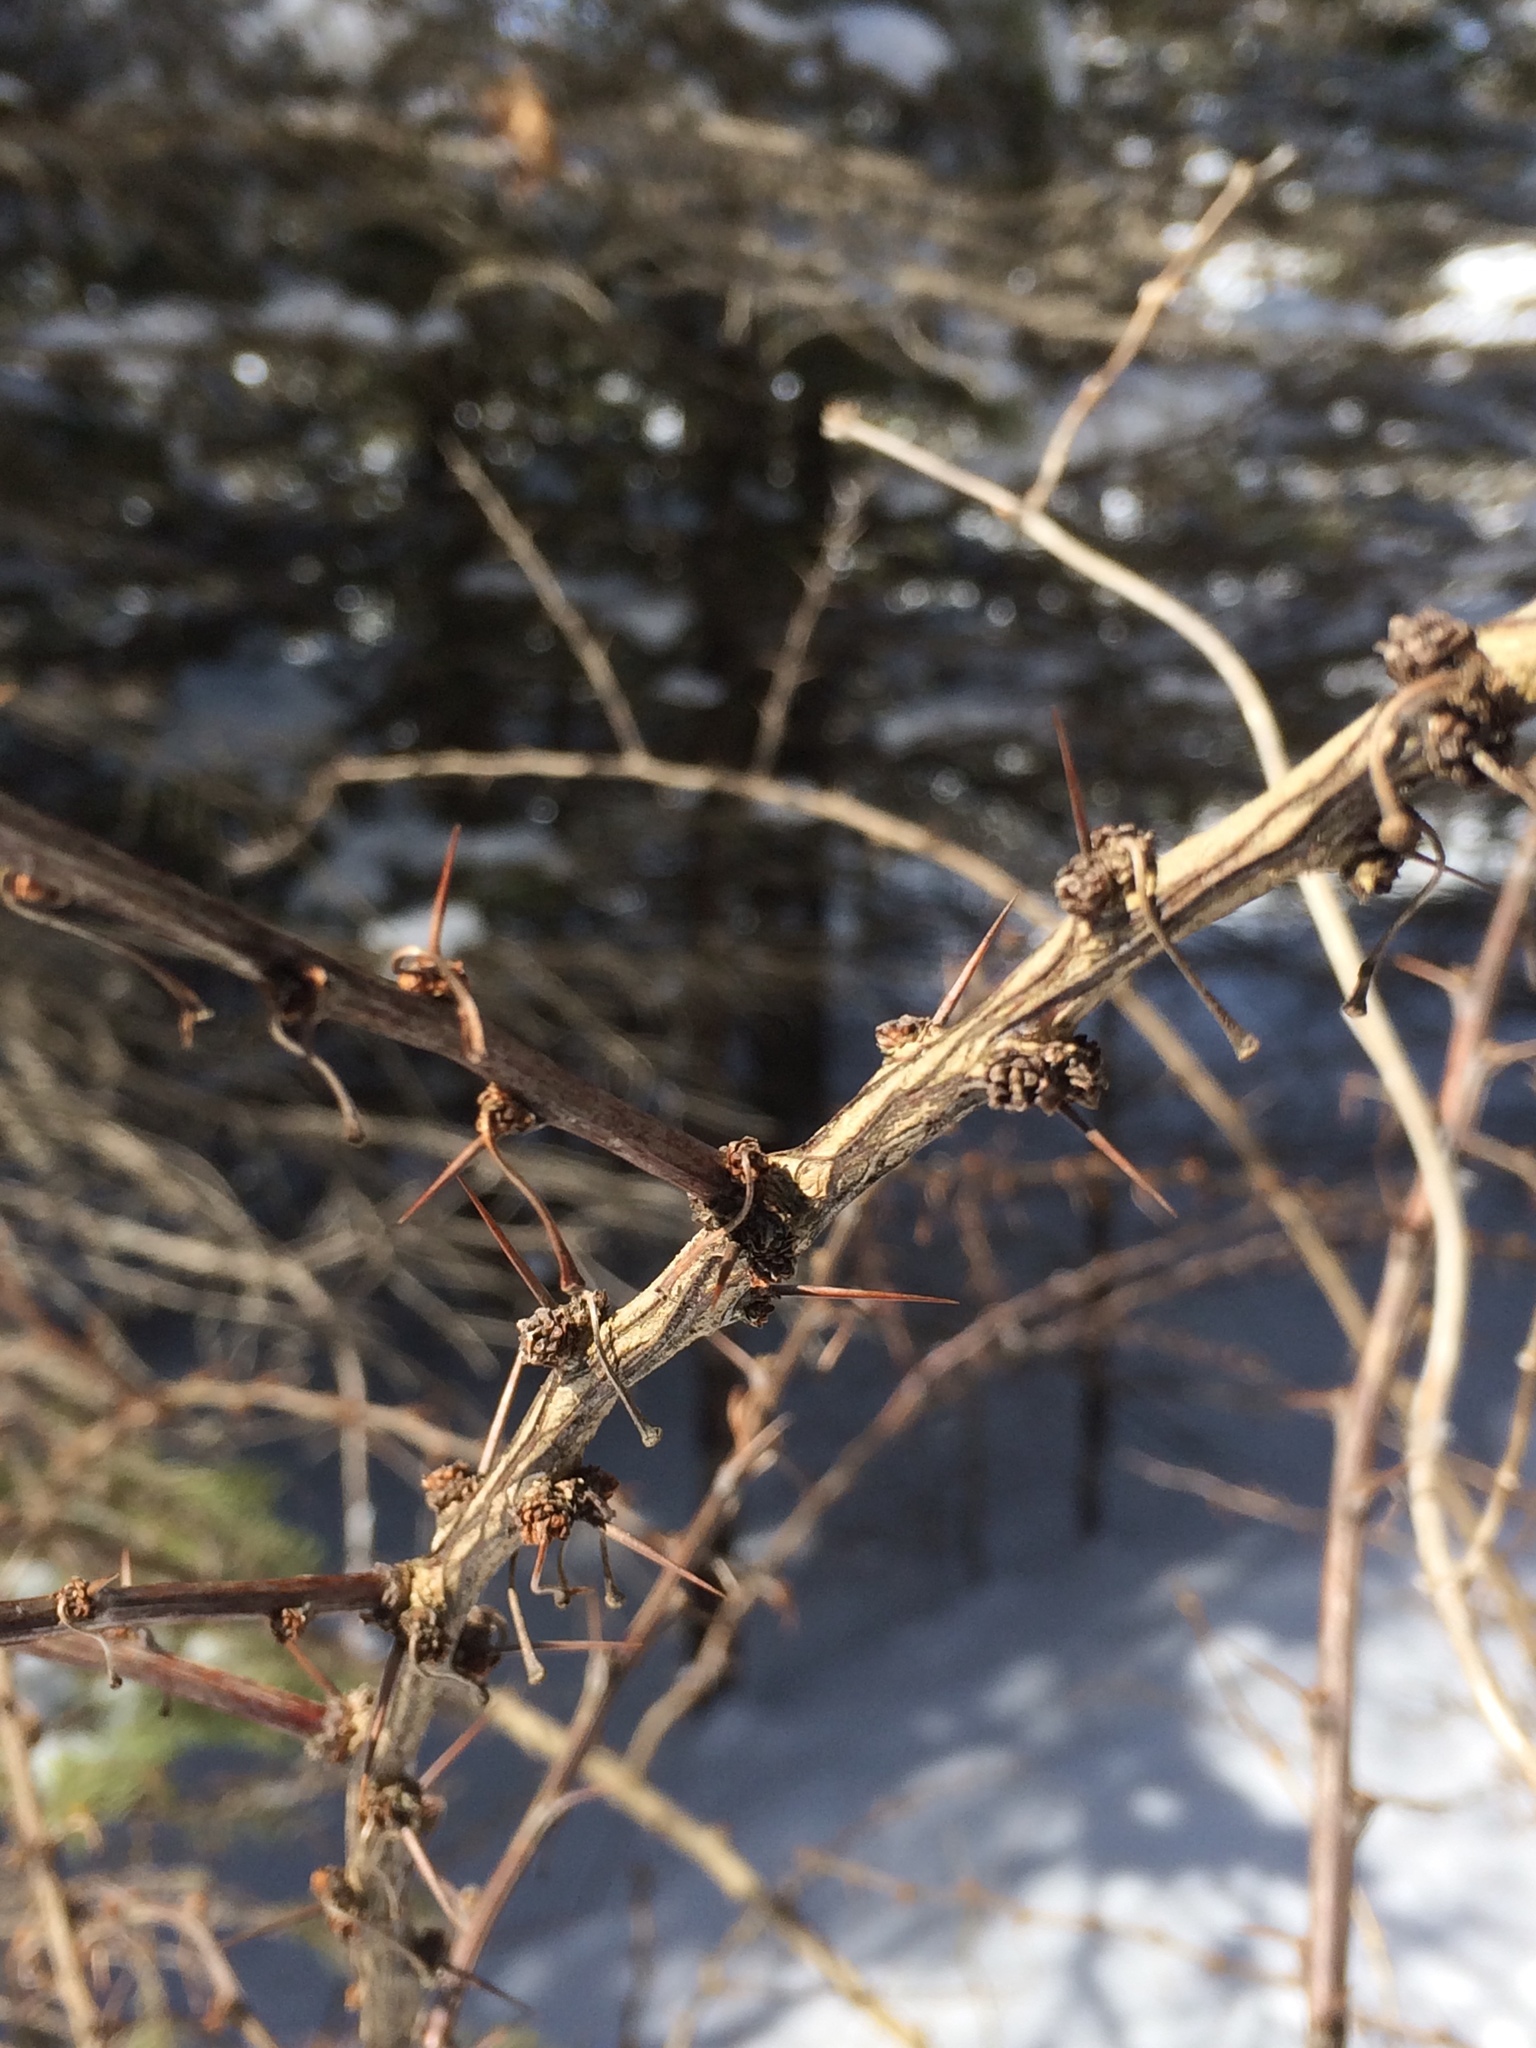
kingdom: Plantae
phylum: Tracheophyta
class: Magnoliopsida
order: Ranunculales
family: Berberidaceae
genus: Berberis
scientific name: Berberis thunbergii
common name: Japanese barberry
